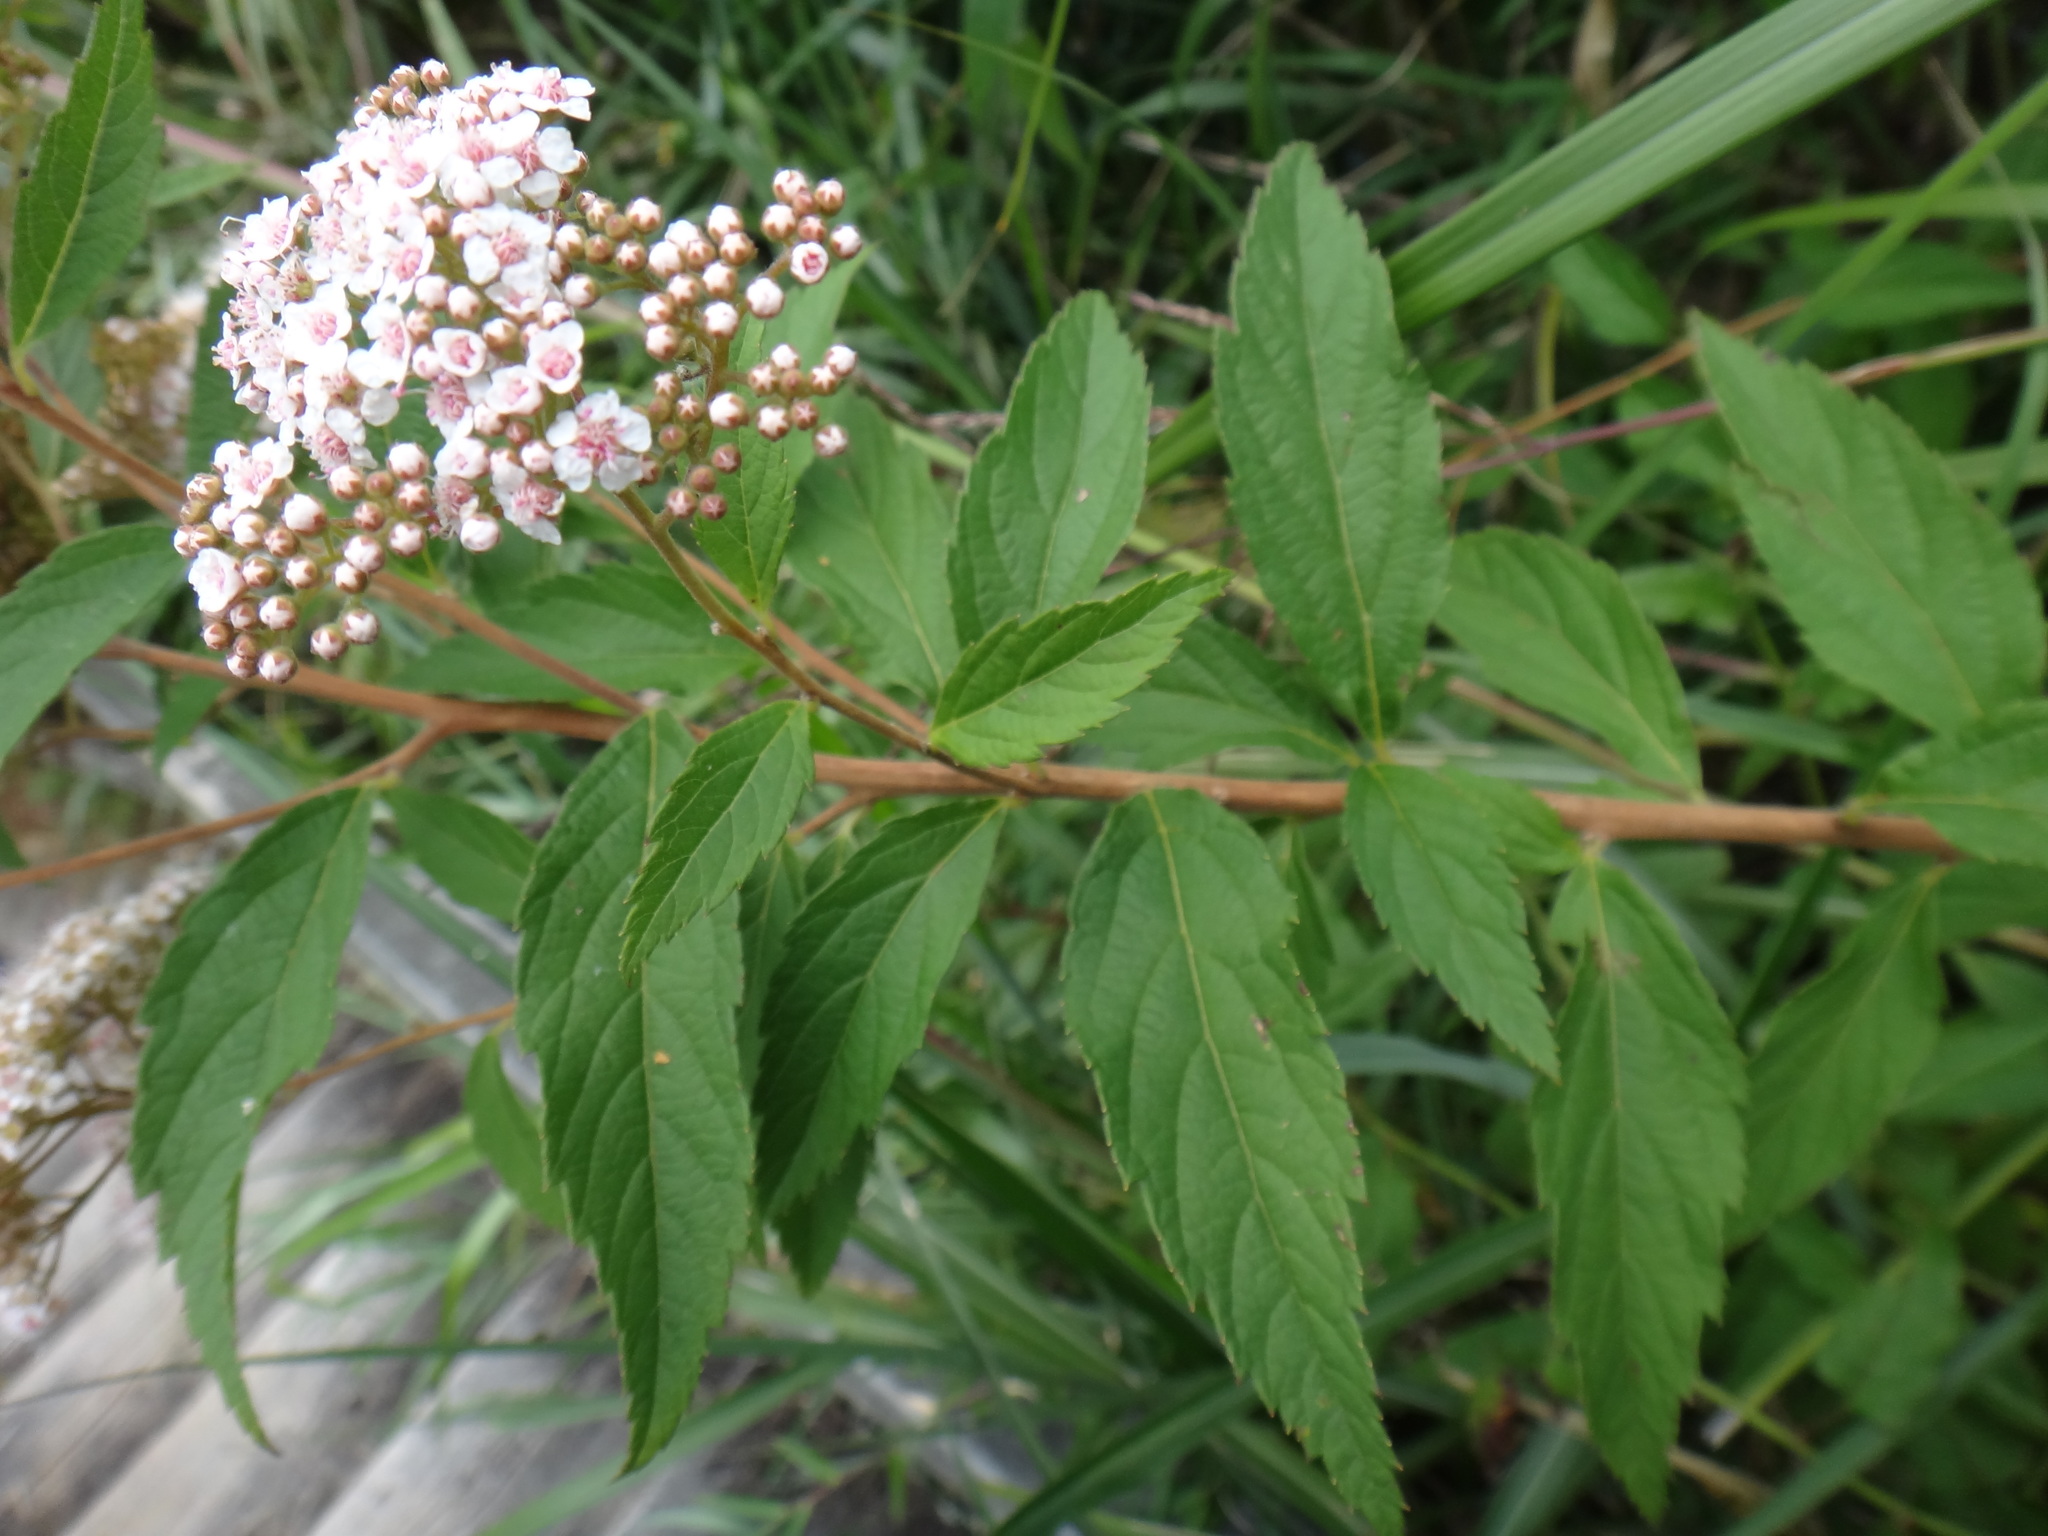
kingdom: Plantae
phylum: Tracheophyta
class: Magnoliopsida
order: Rosales
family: Rosaceae
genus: Spiraea
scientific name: Spiraea japonica
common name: Japanese spiraea
